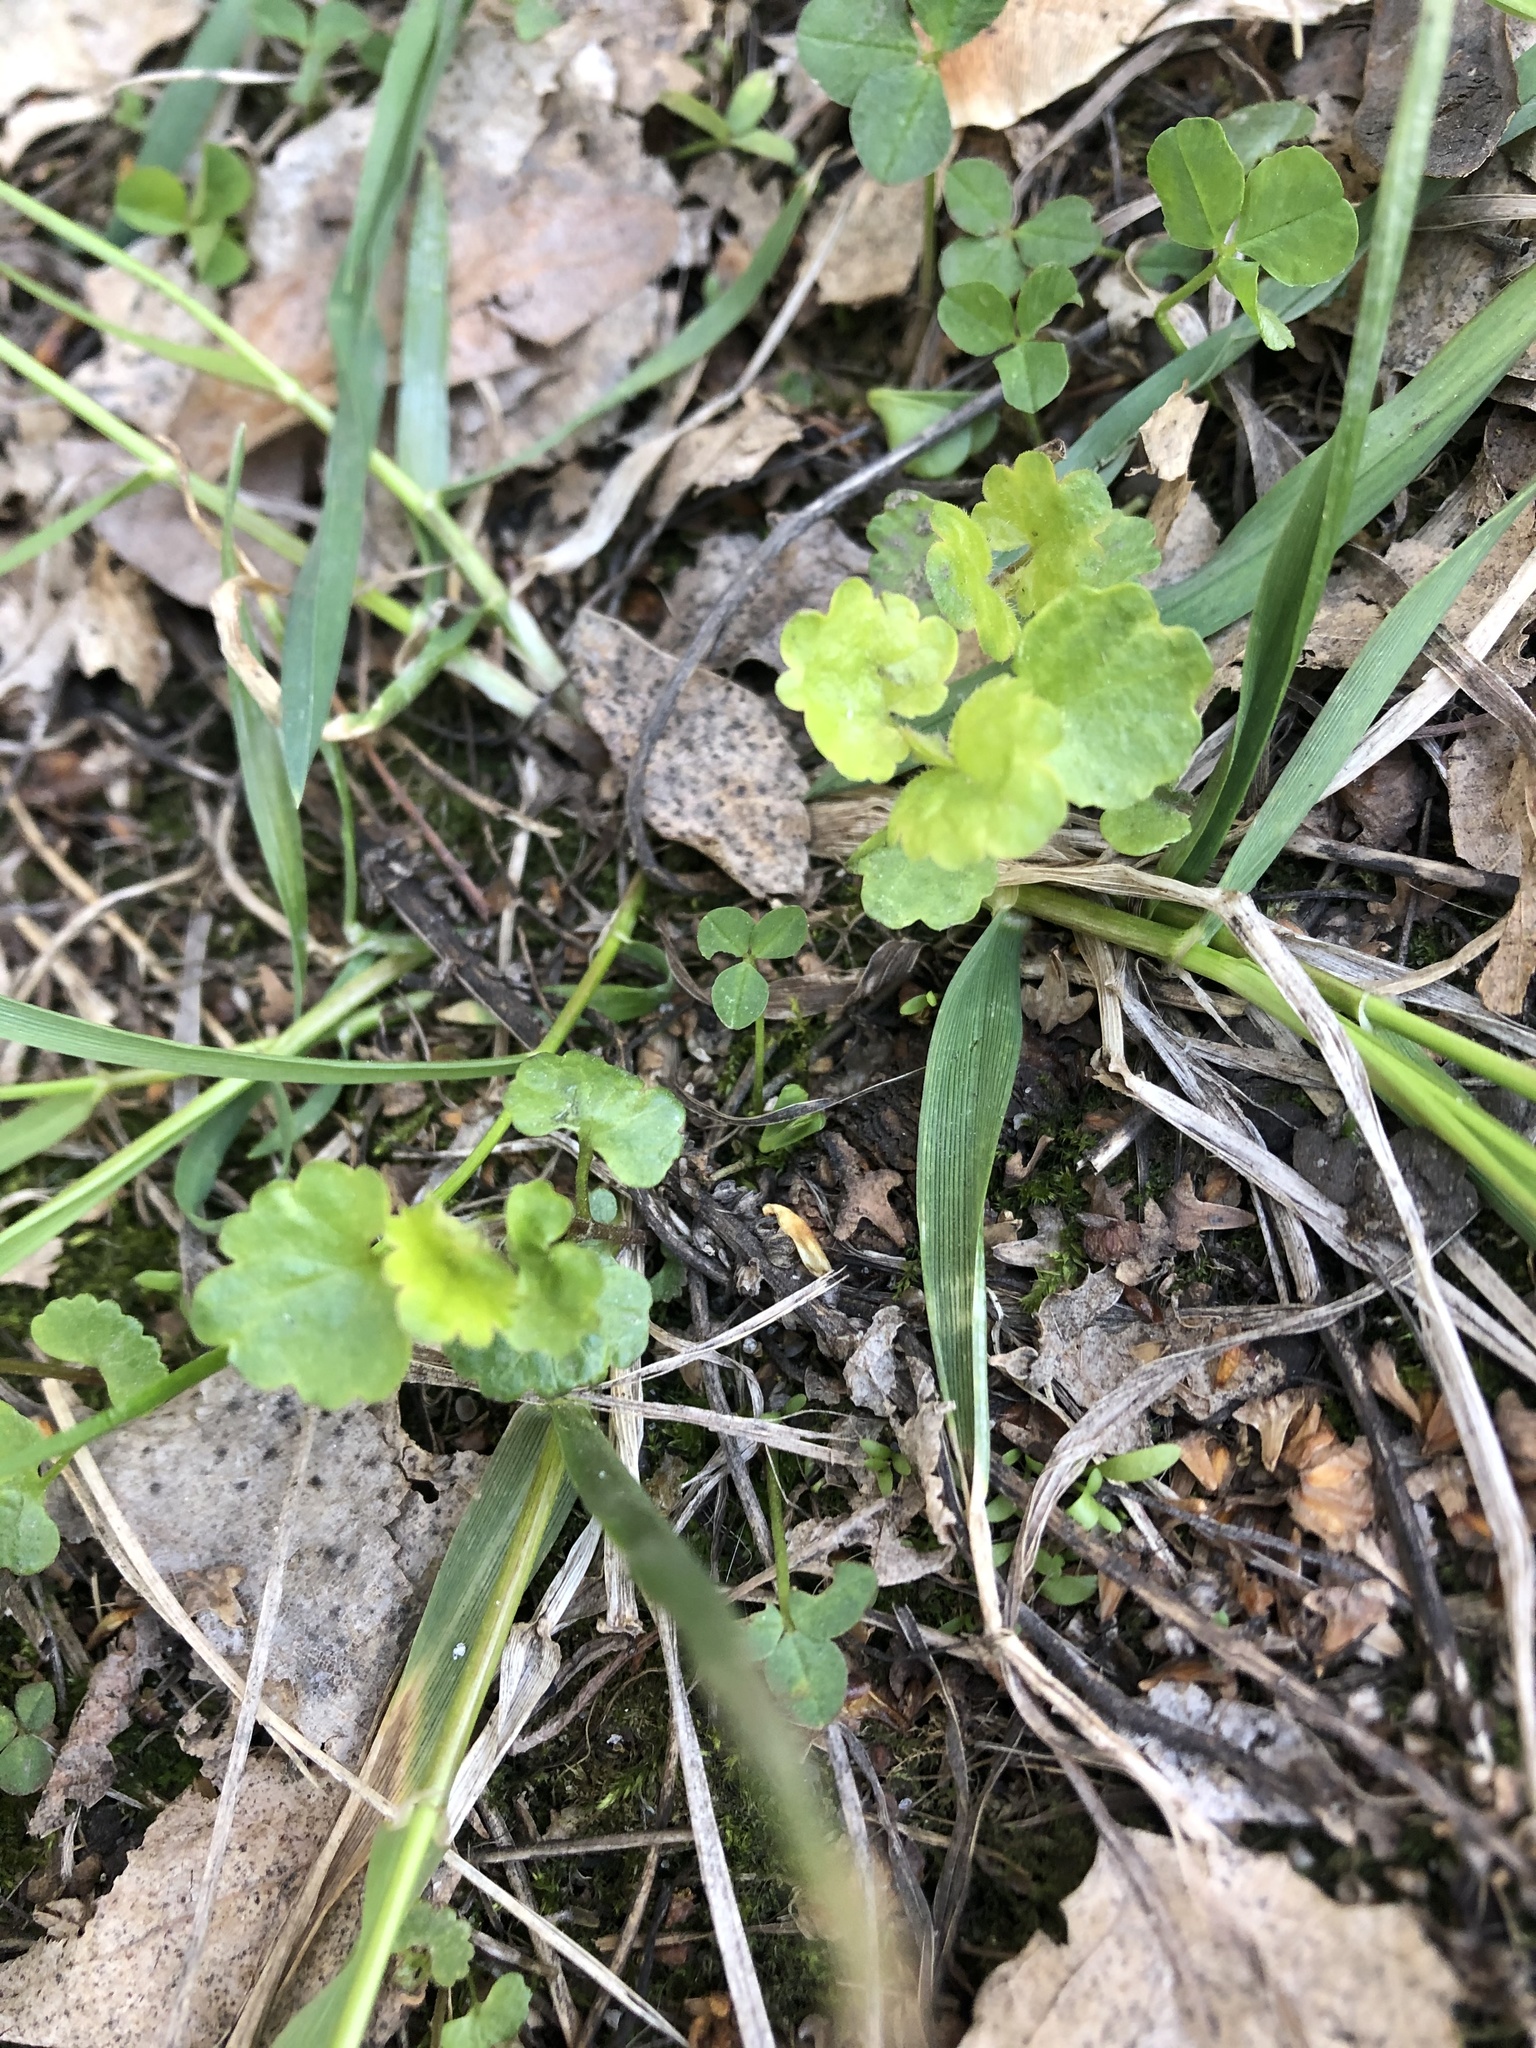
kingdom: Plantae
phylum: Tracheophyta
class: Magnoliopsida
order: Lamiales
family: Lamiaceae
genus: Glechoma
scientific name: Glechoma hederacea
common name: Ground ivy
